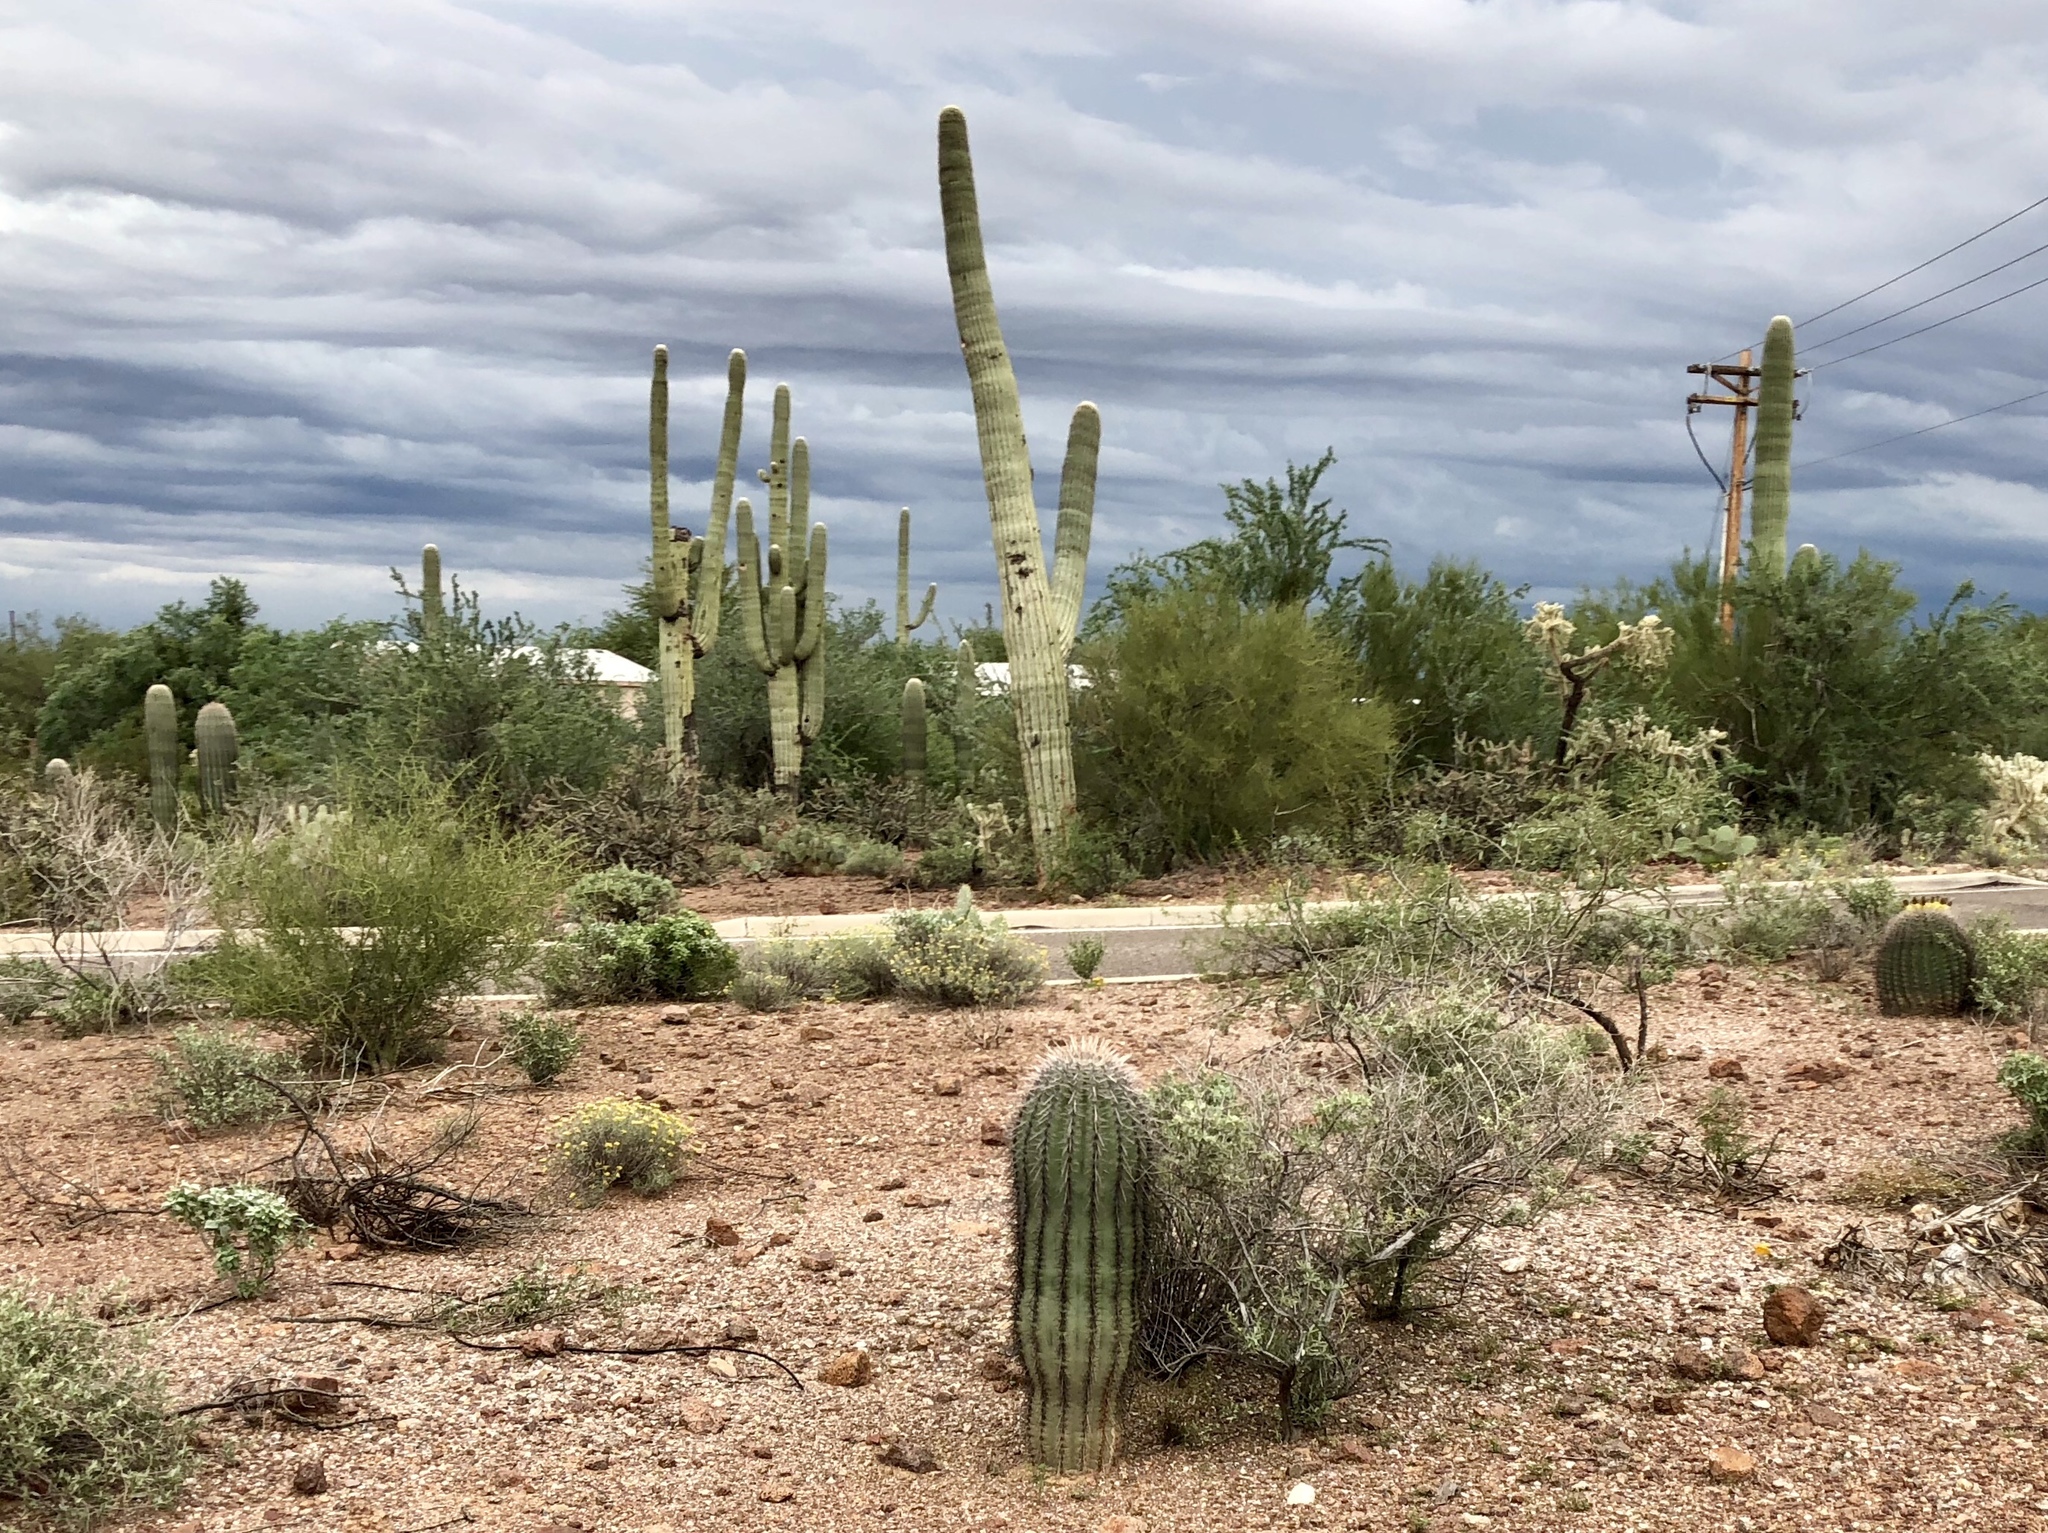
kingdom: Plantae
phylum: Tracheophyta
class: Magnoliopsida
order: Caryophyllales
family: Cactaceae
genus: Carnegiea
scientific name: Carnegiea gigantea
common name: Saguaro
